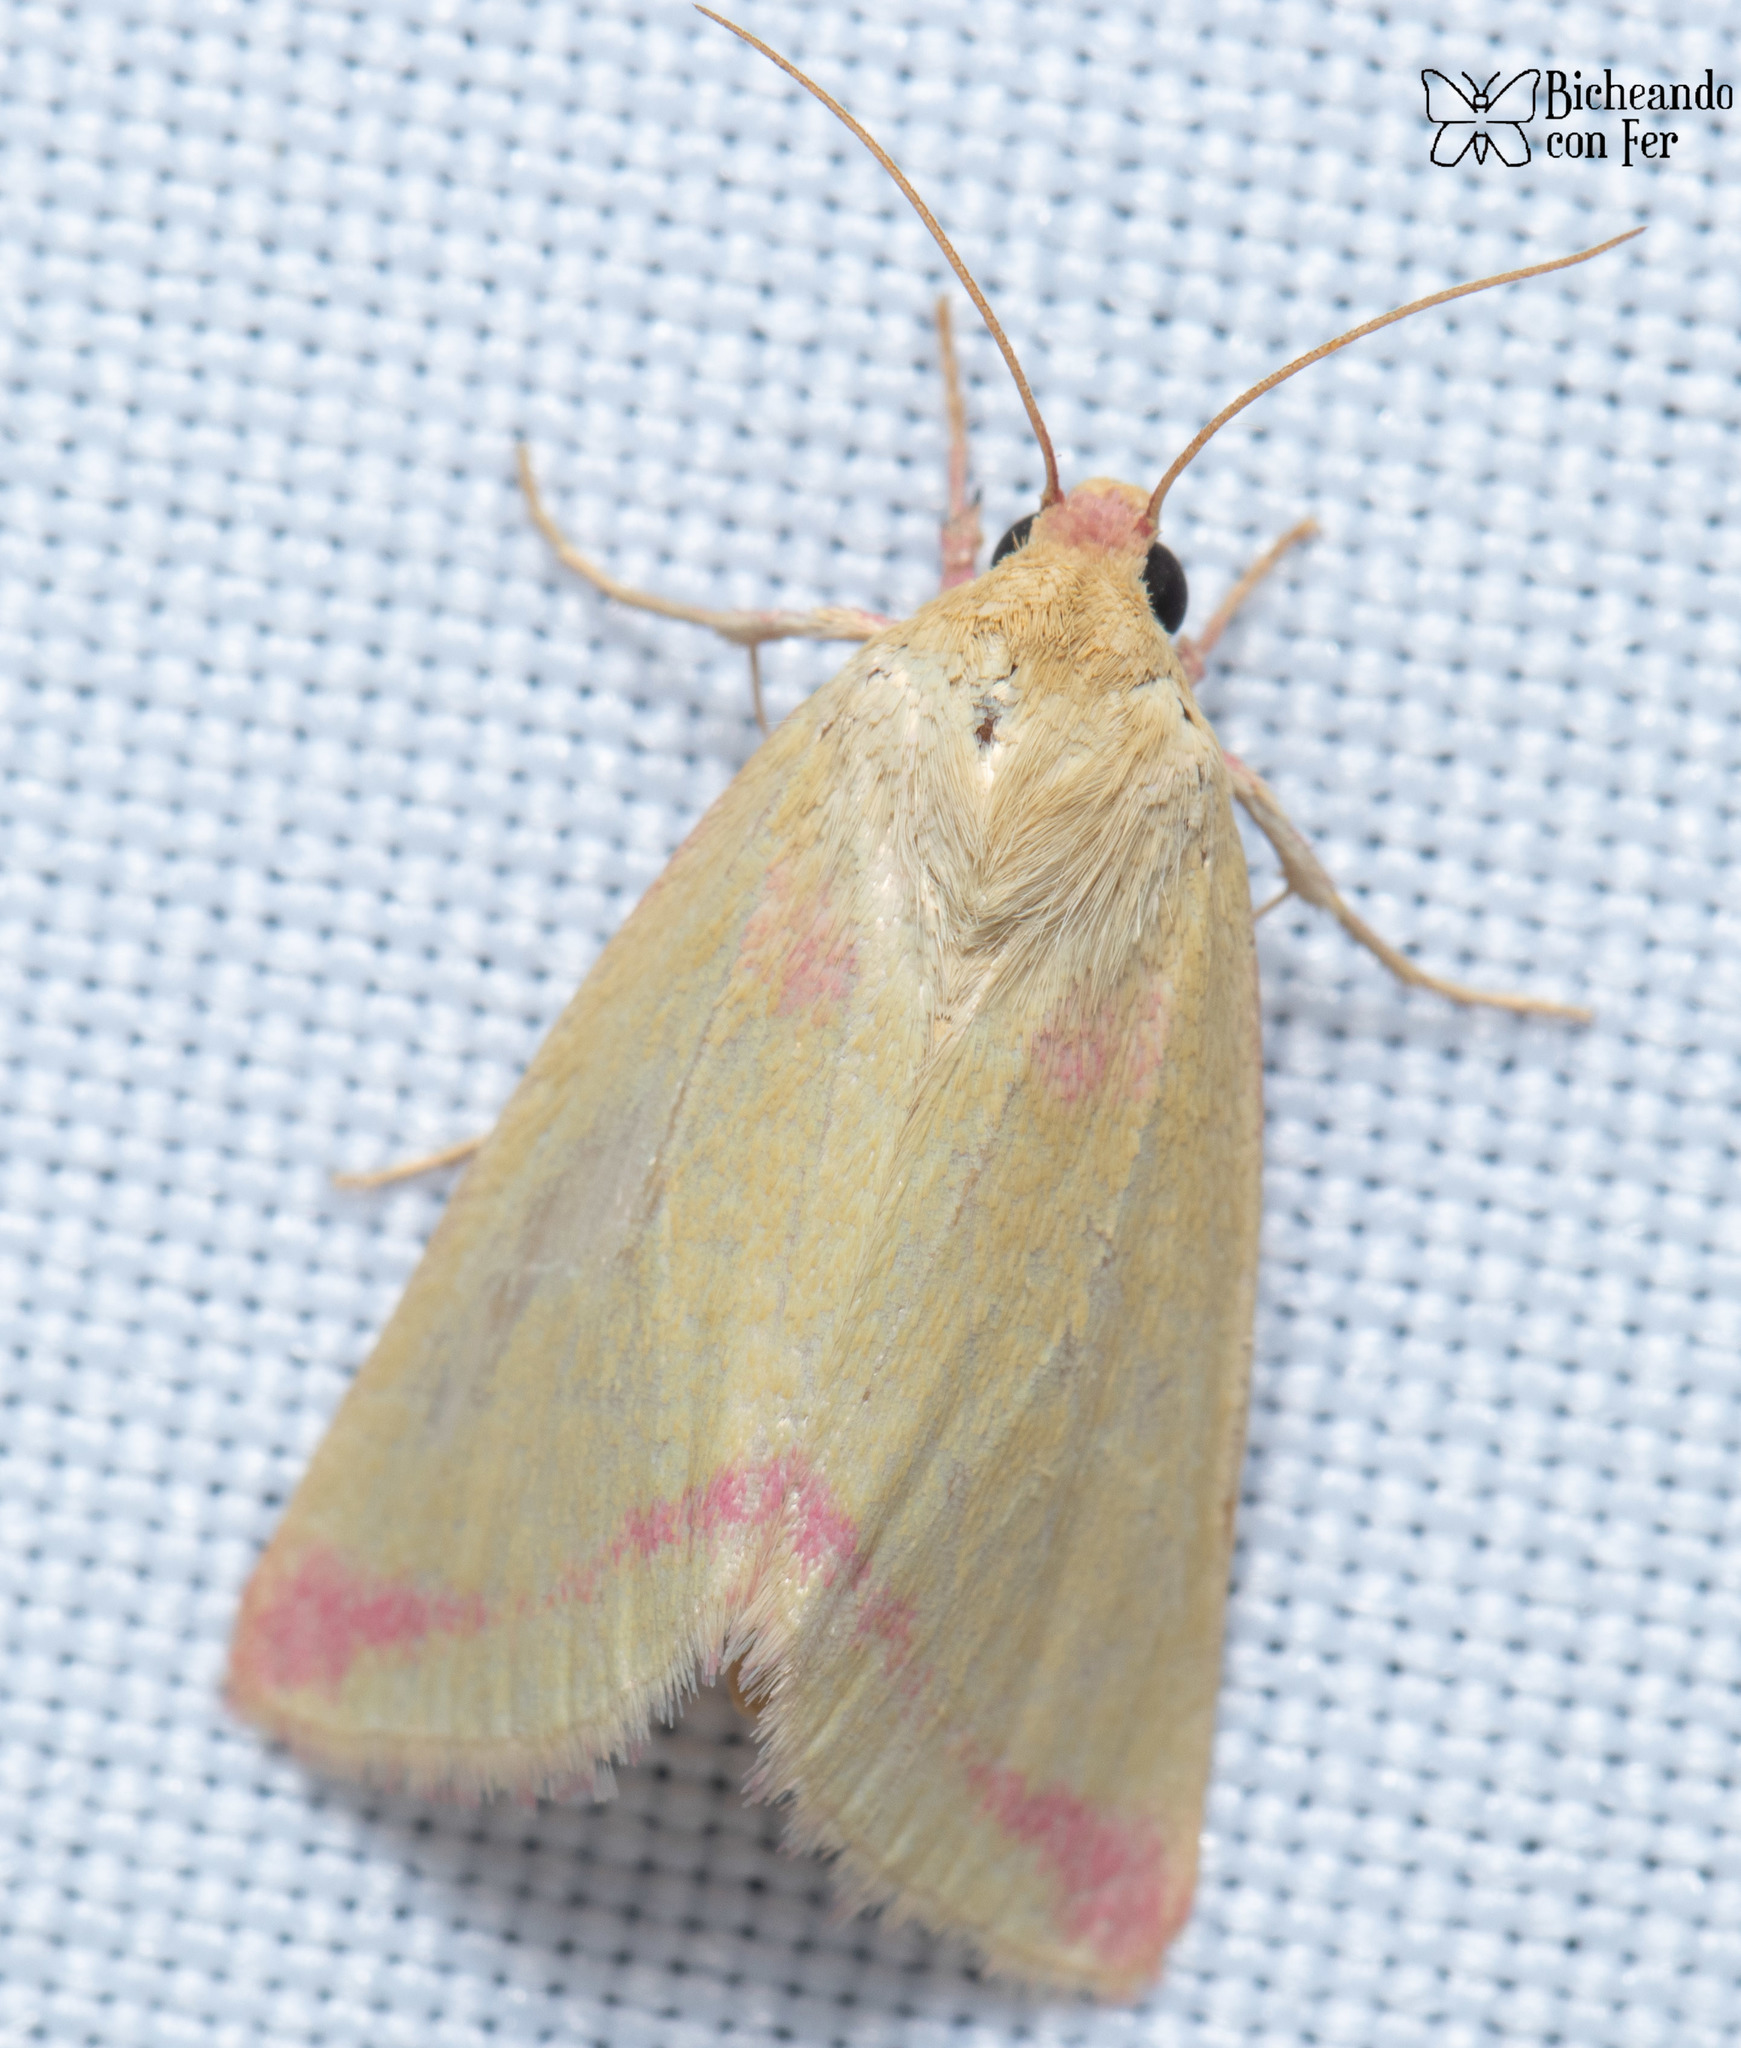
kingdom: Animalia
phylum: Arthropoda
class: Insecta
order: Lepidoptera
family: Noctuidae
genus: Heliocheilus
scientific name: Heliocheilus toralis
